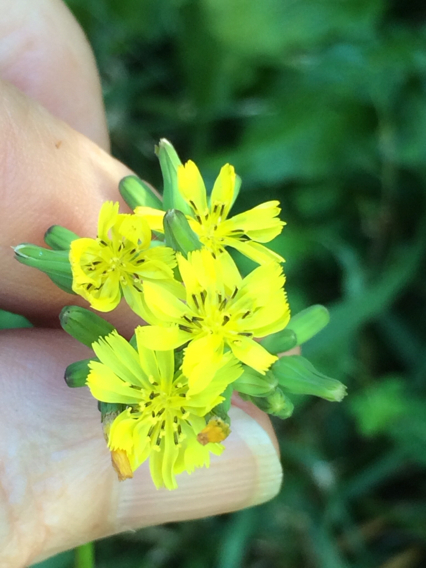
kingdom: Plantae
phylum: Tracheophyta
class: Magnoliopsida
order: Asterales
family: Asteraceae
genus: Youngia
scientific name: Youngia japonica
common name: Oriental false hawksbeard
